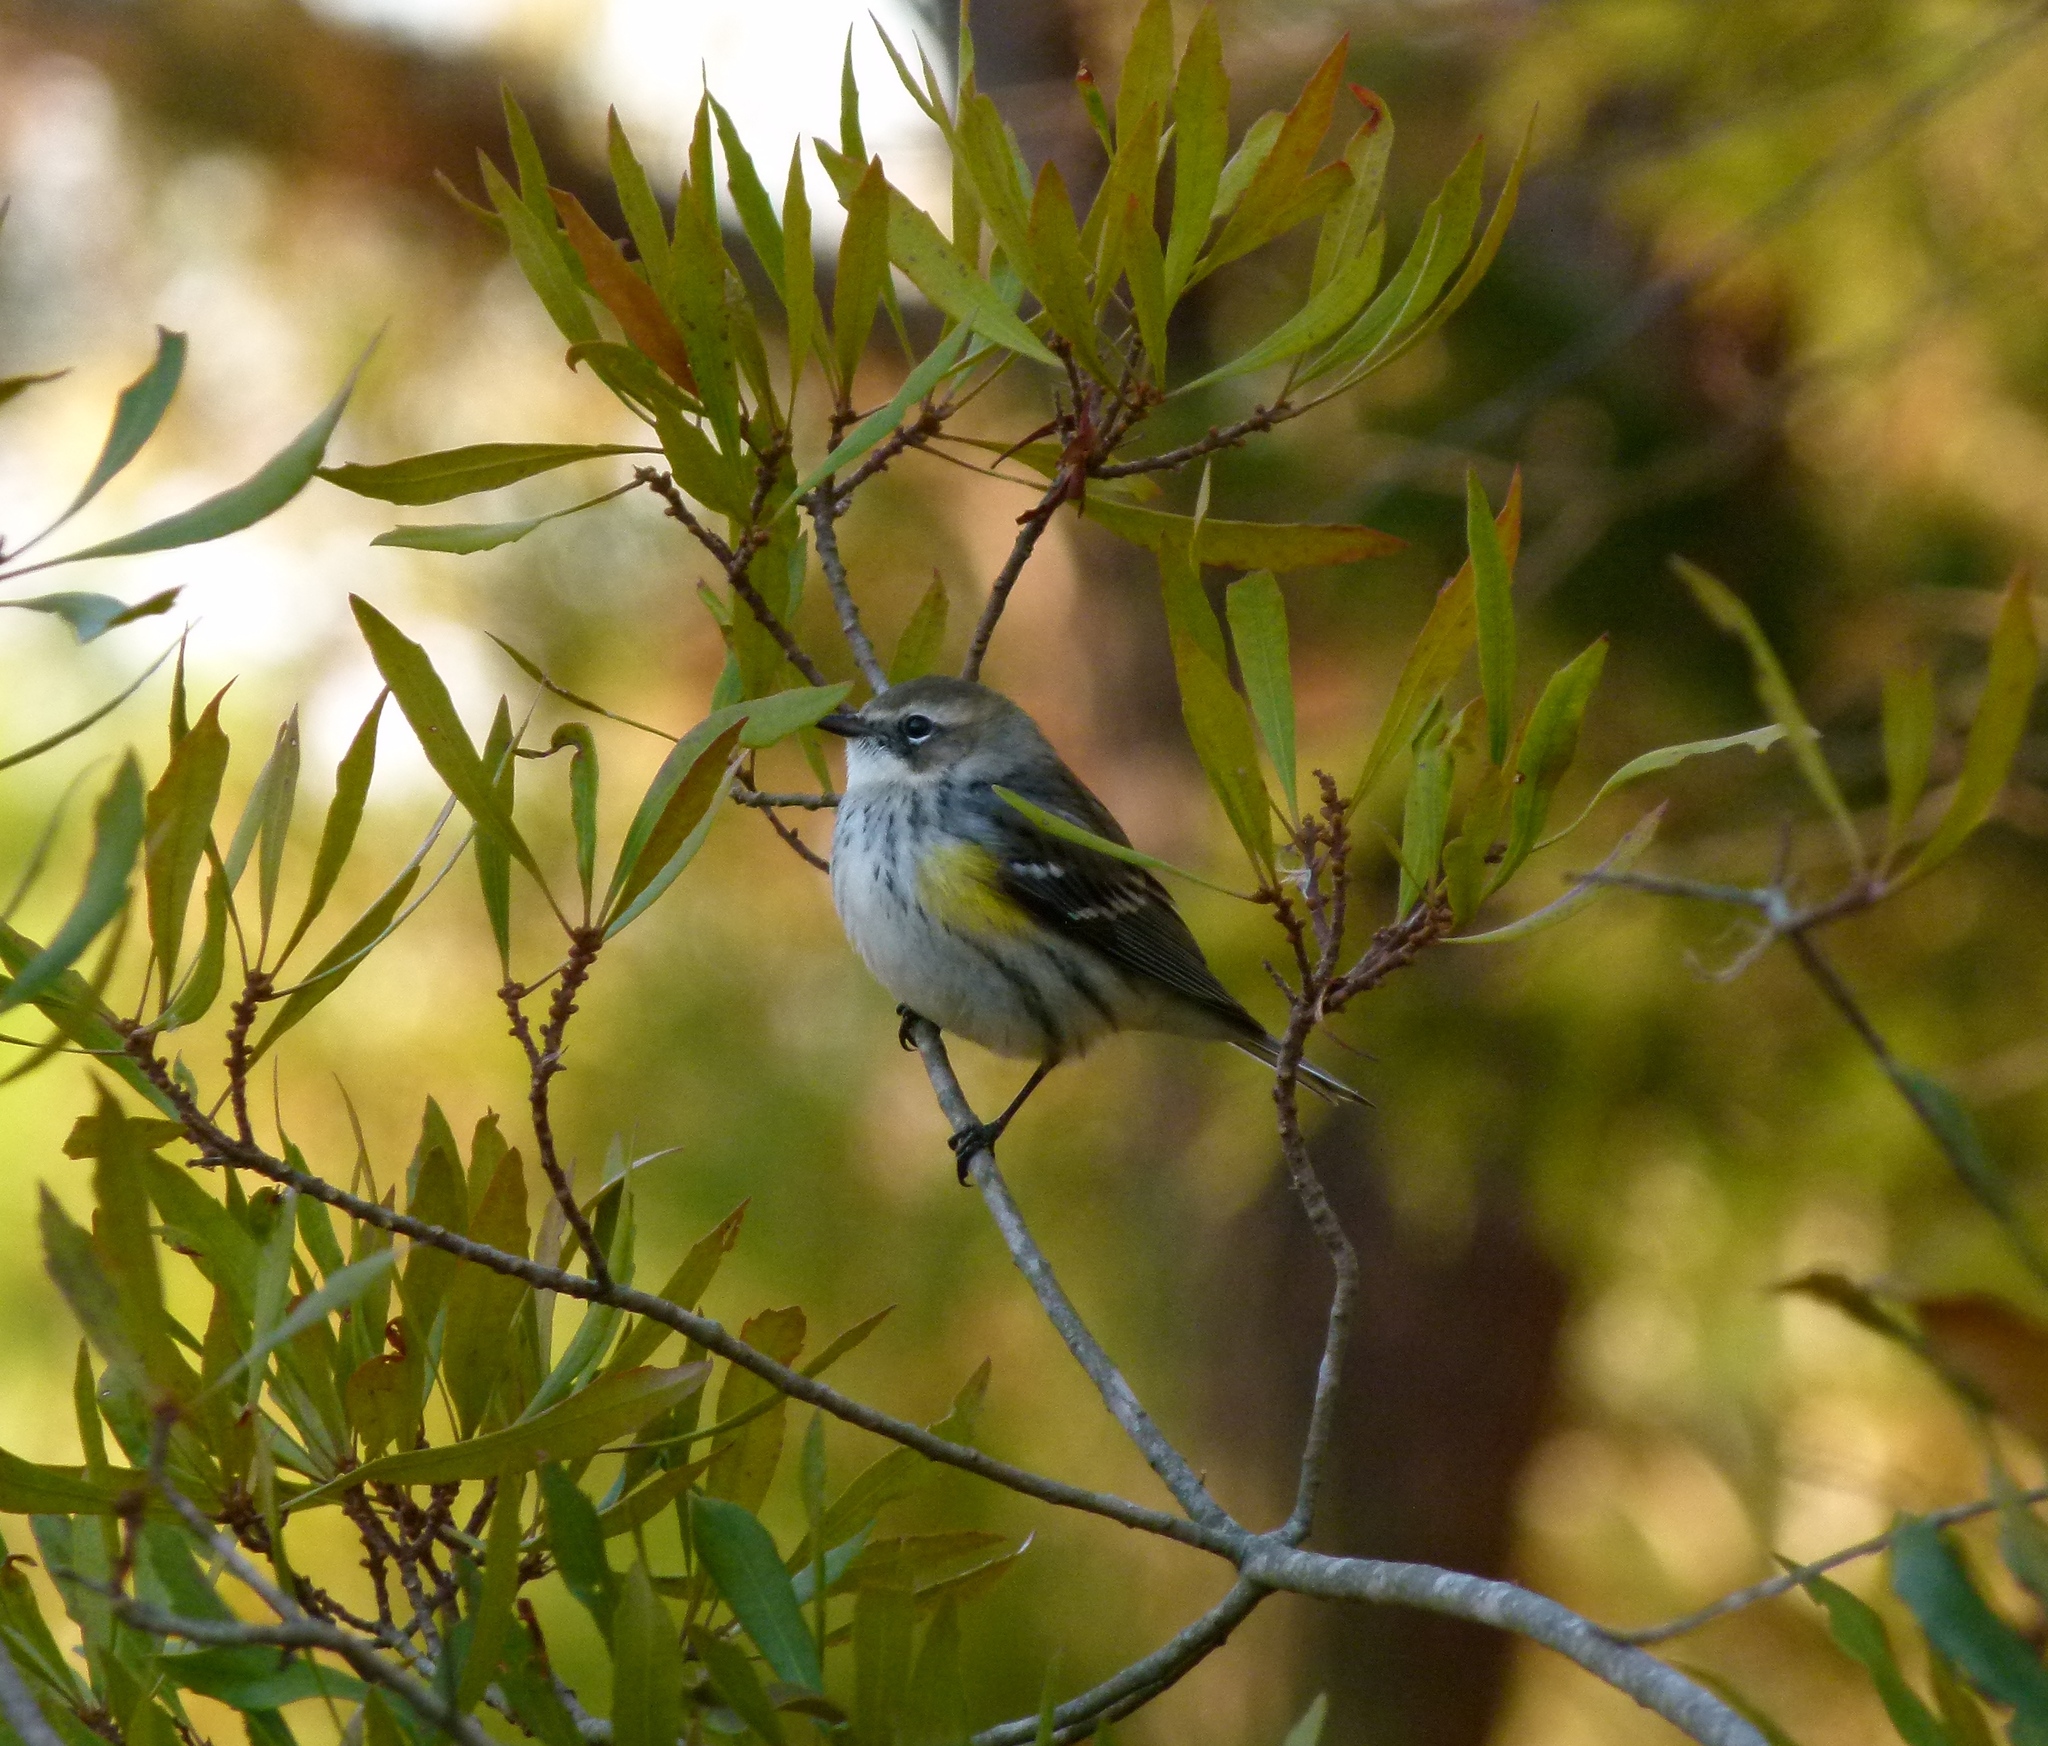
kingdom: Animalia
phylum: Chordata
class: Aves
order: Passeriformes
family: Parulidae
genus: Setophaga
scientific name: Setophaga coronata
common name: Myrtle warbler
